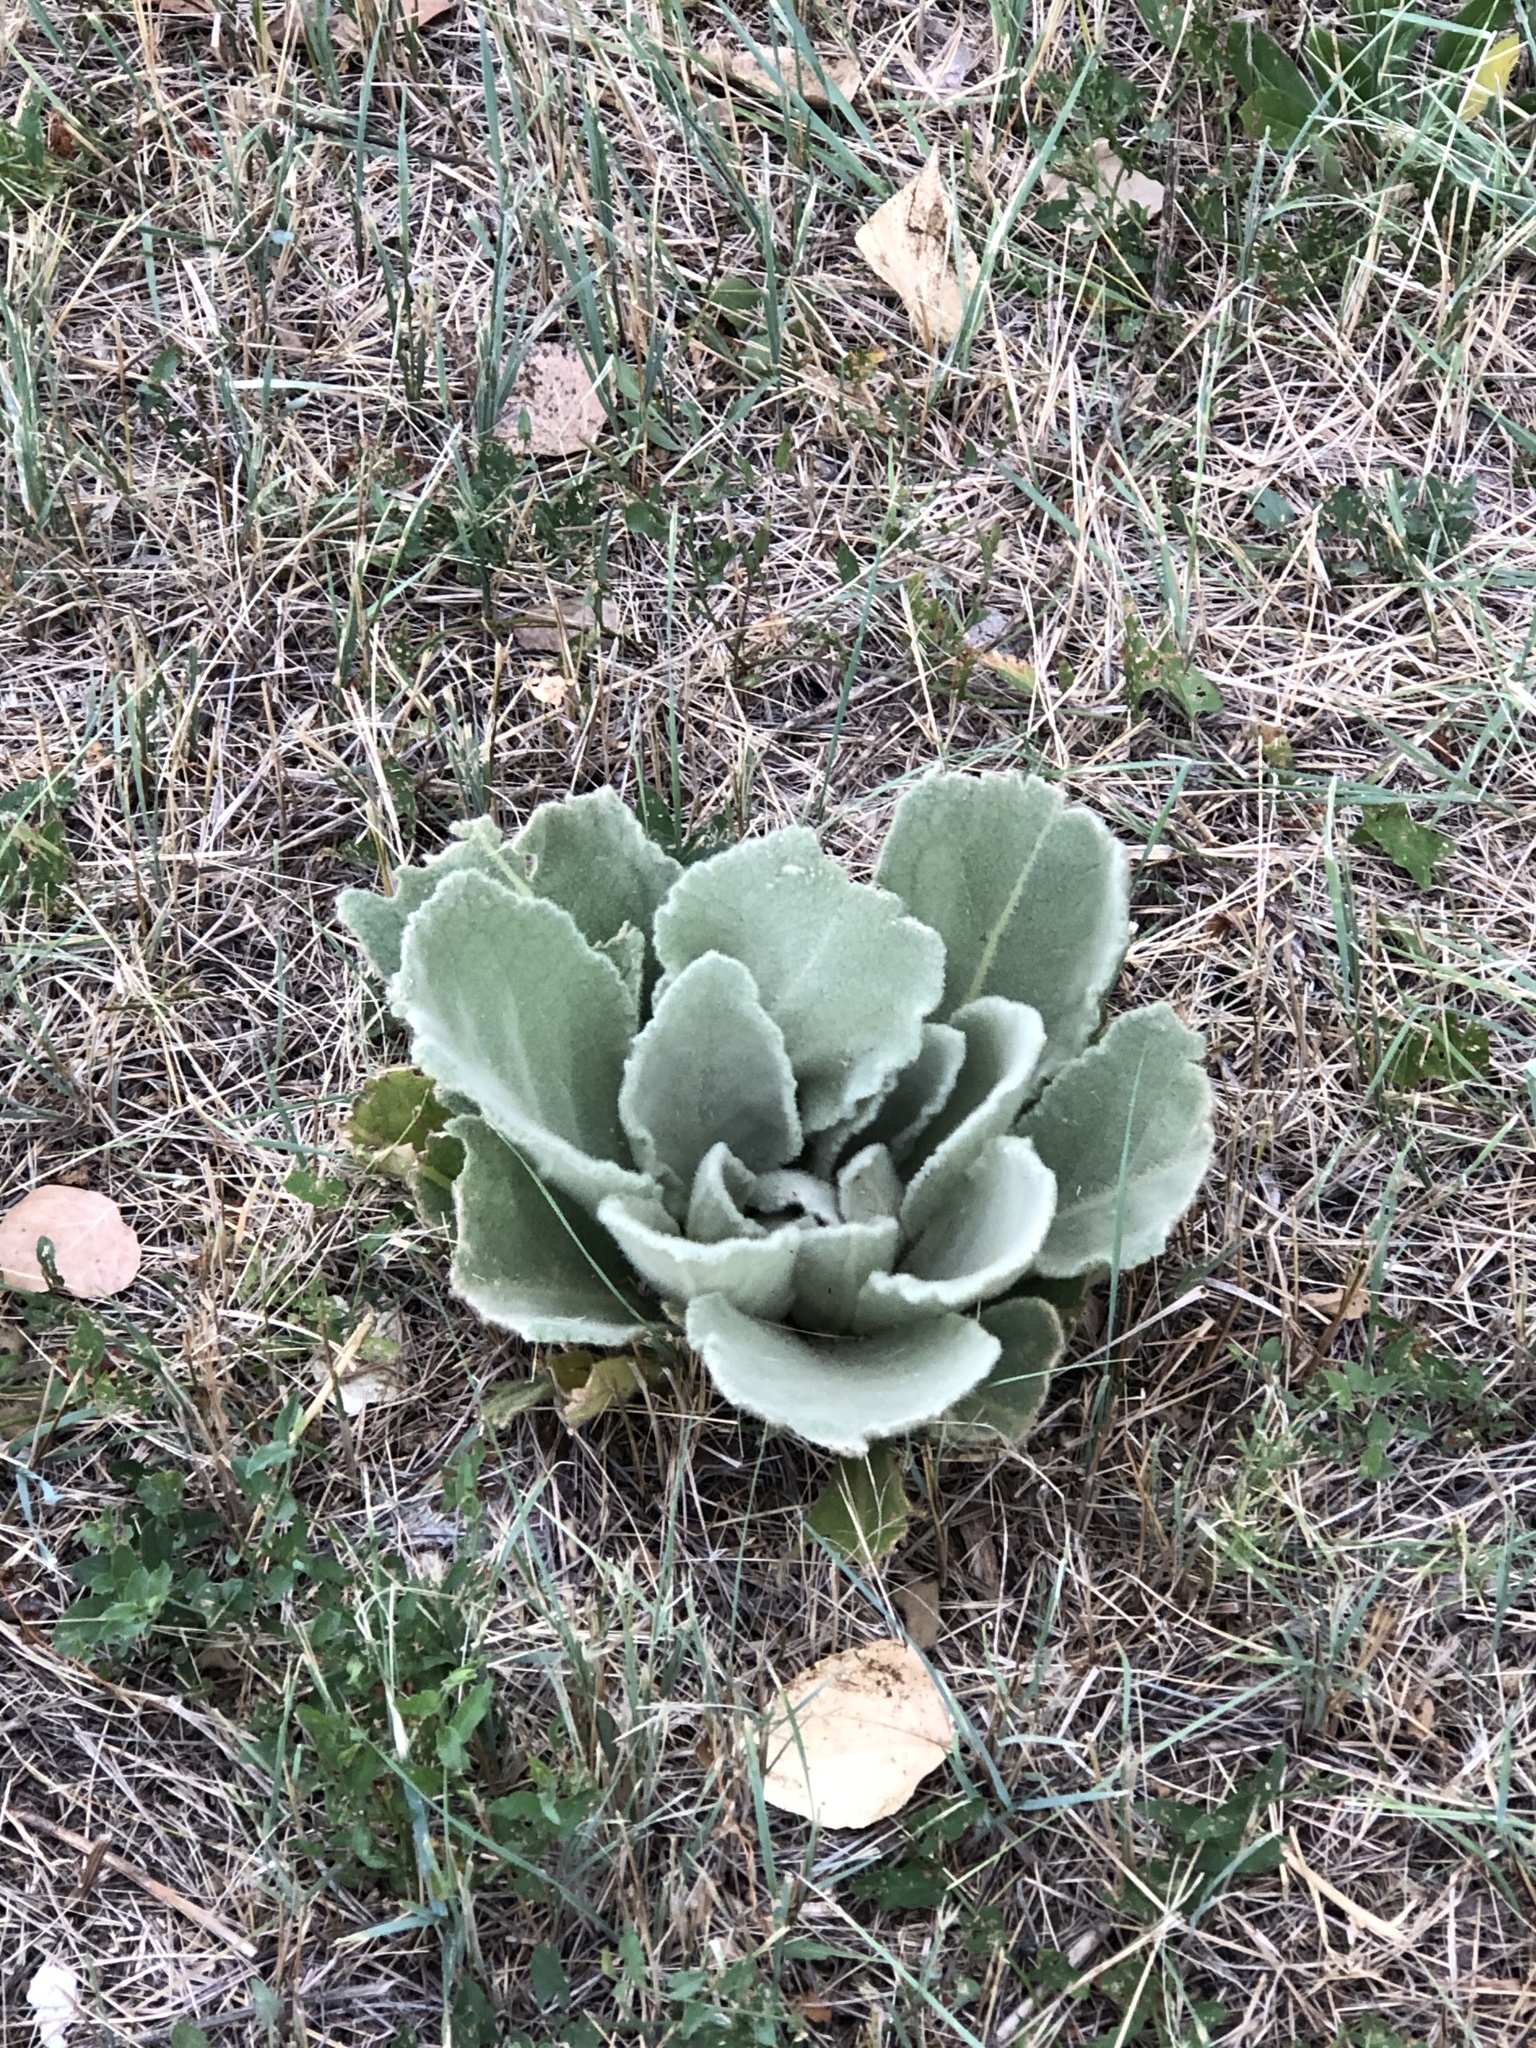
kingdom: Plantae
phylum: Tracheophyta
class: Magnoliopsida
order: Lamiales
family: Scrophulariaceae
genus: Verbascum
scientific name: Verbascum thapsus
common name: Common mullein
